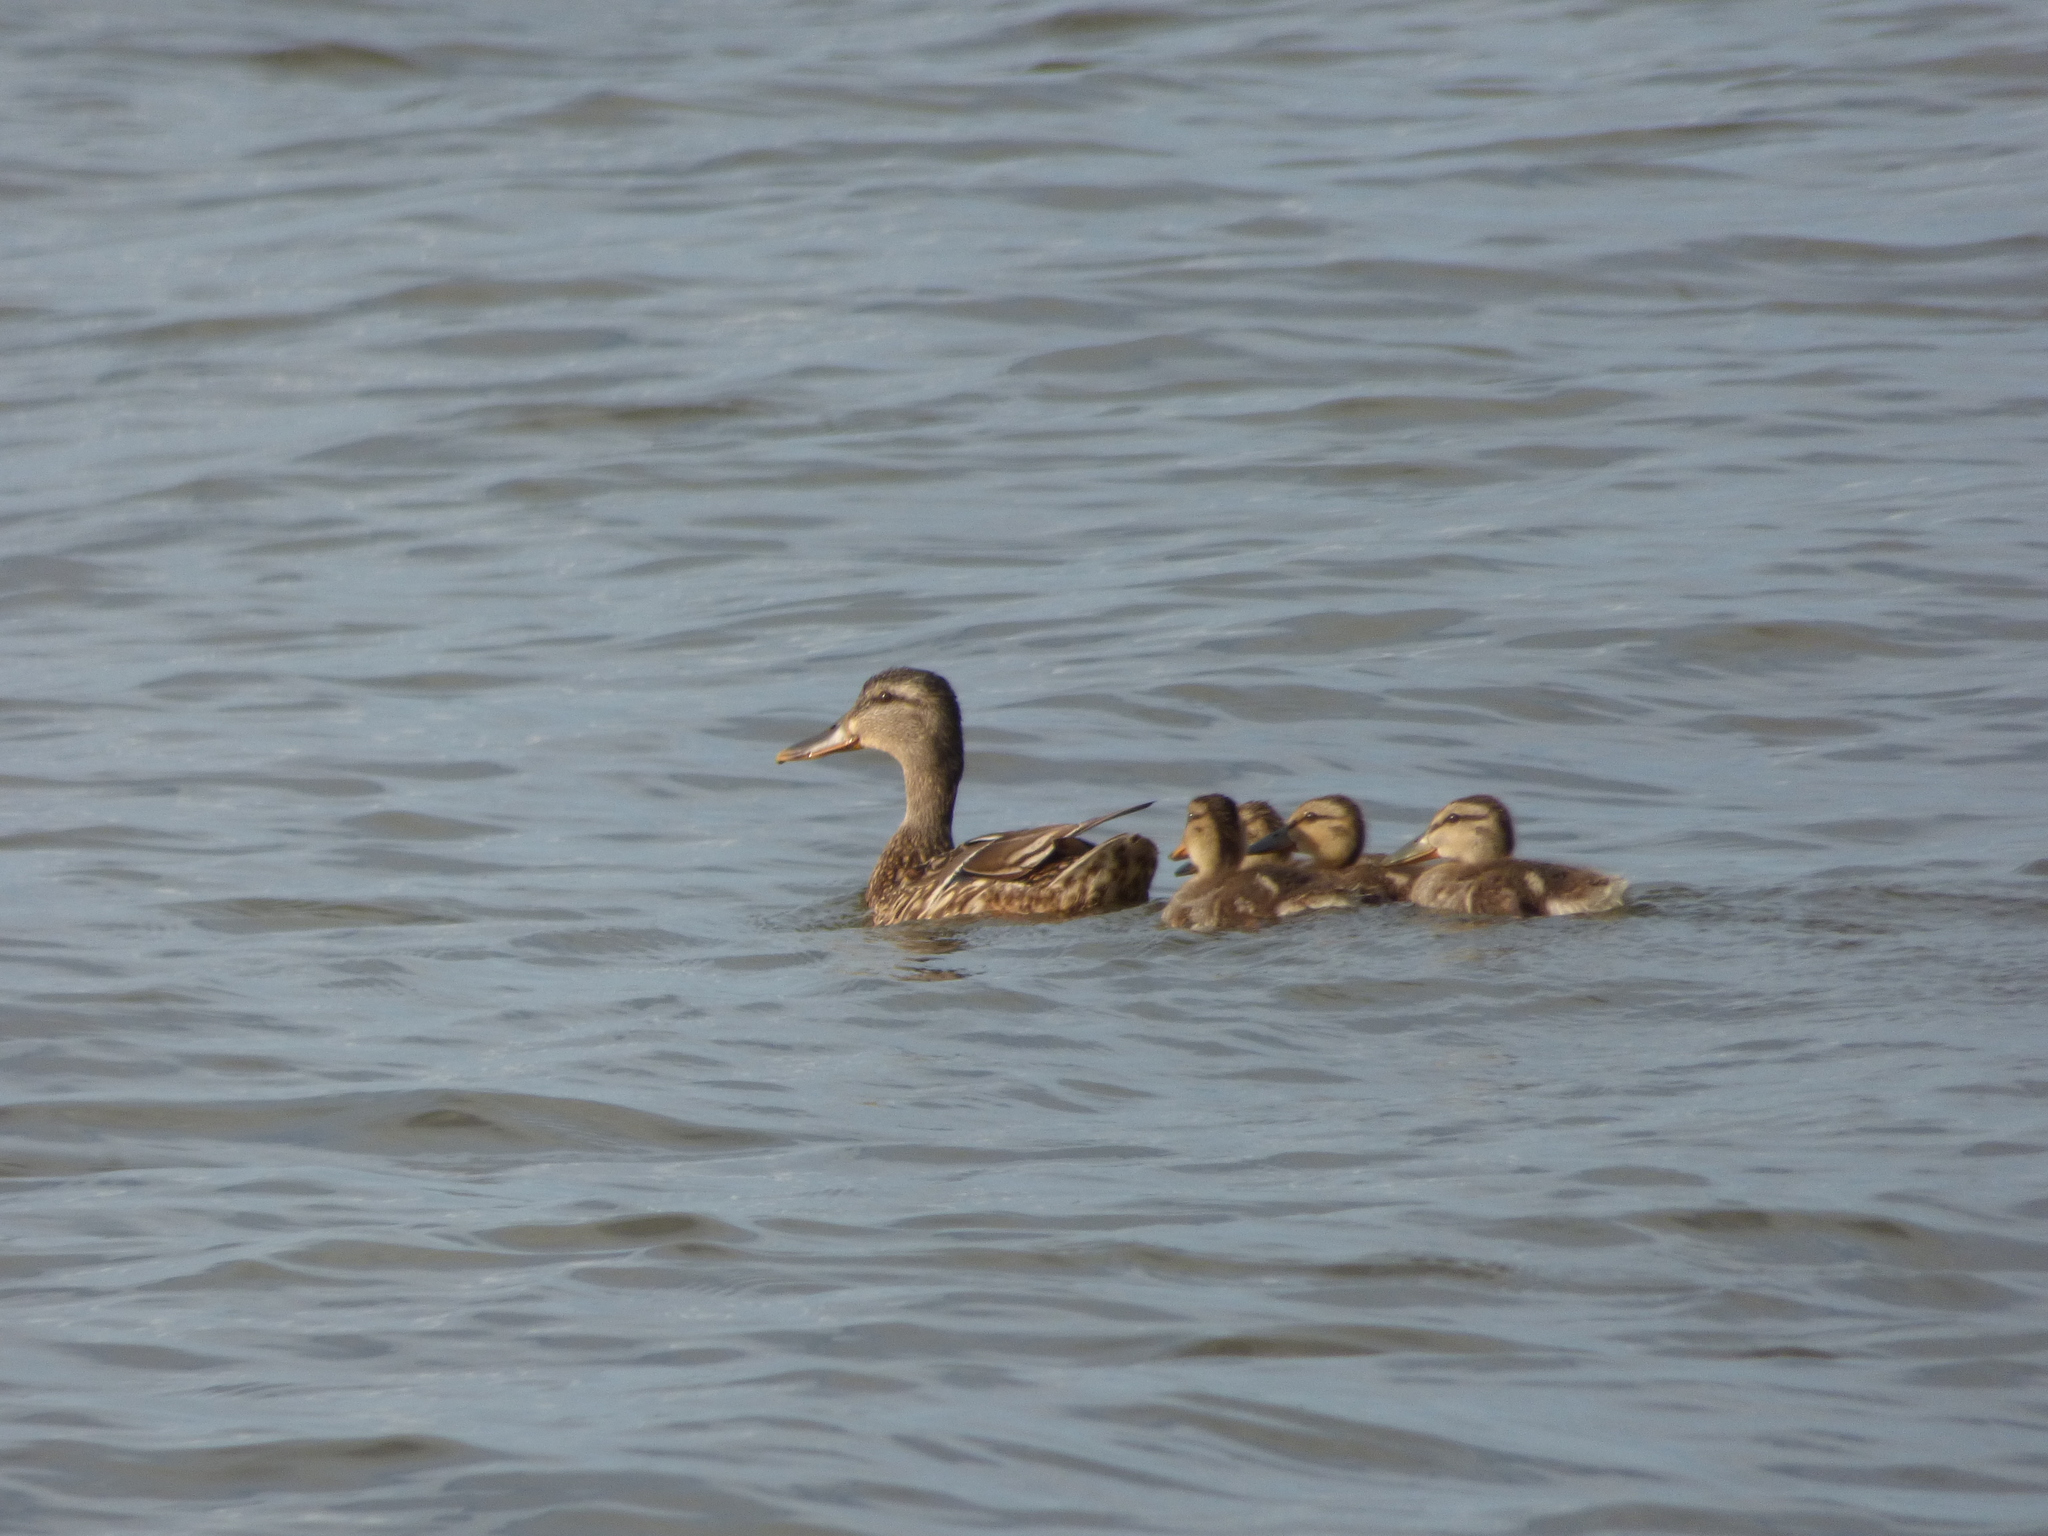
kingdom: Animalia
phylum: Chordata
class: Aves
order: Anseriformes
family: Anatidae
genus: Anas
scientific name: Anas platyrhynchos
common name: Mallard
